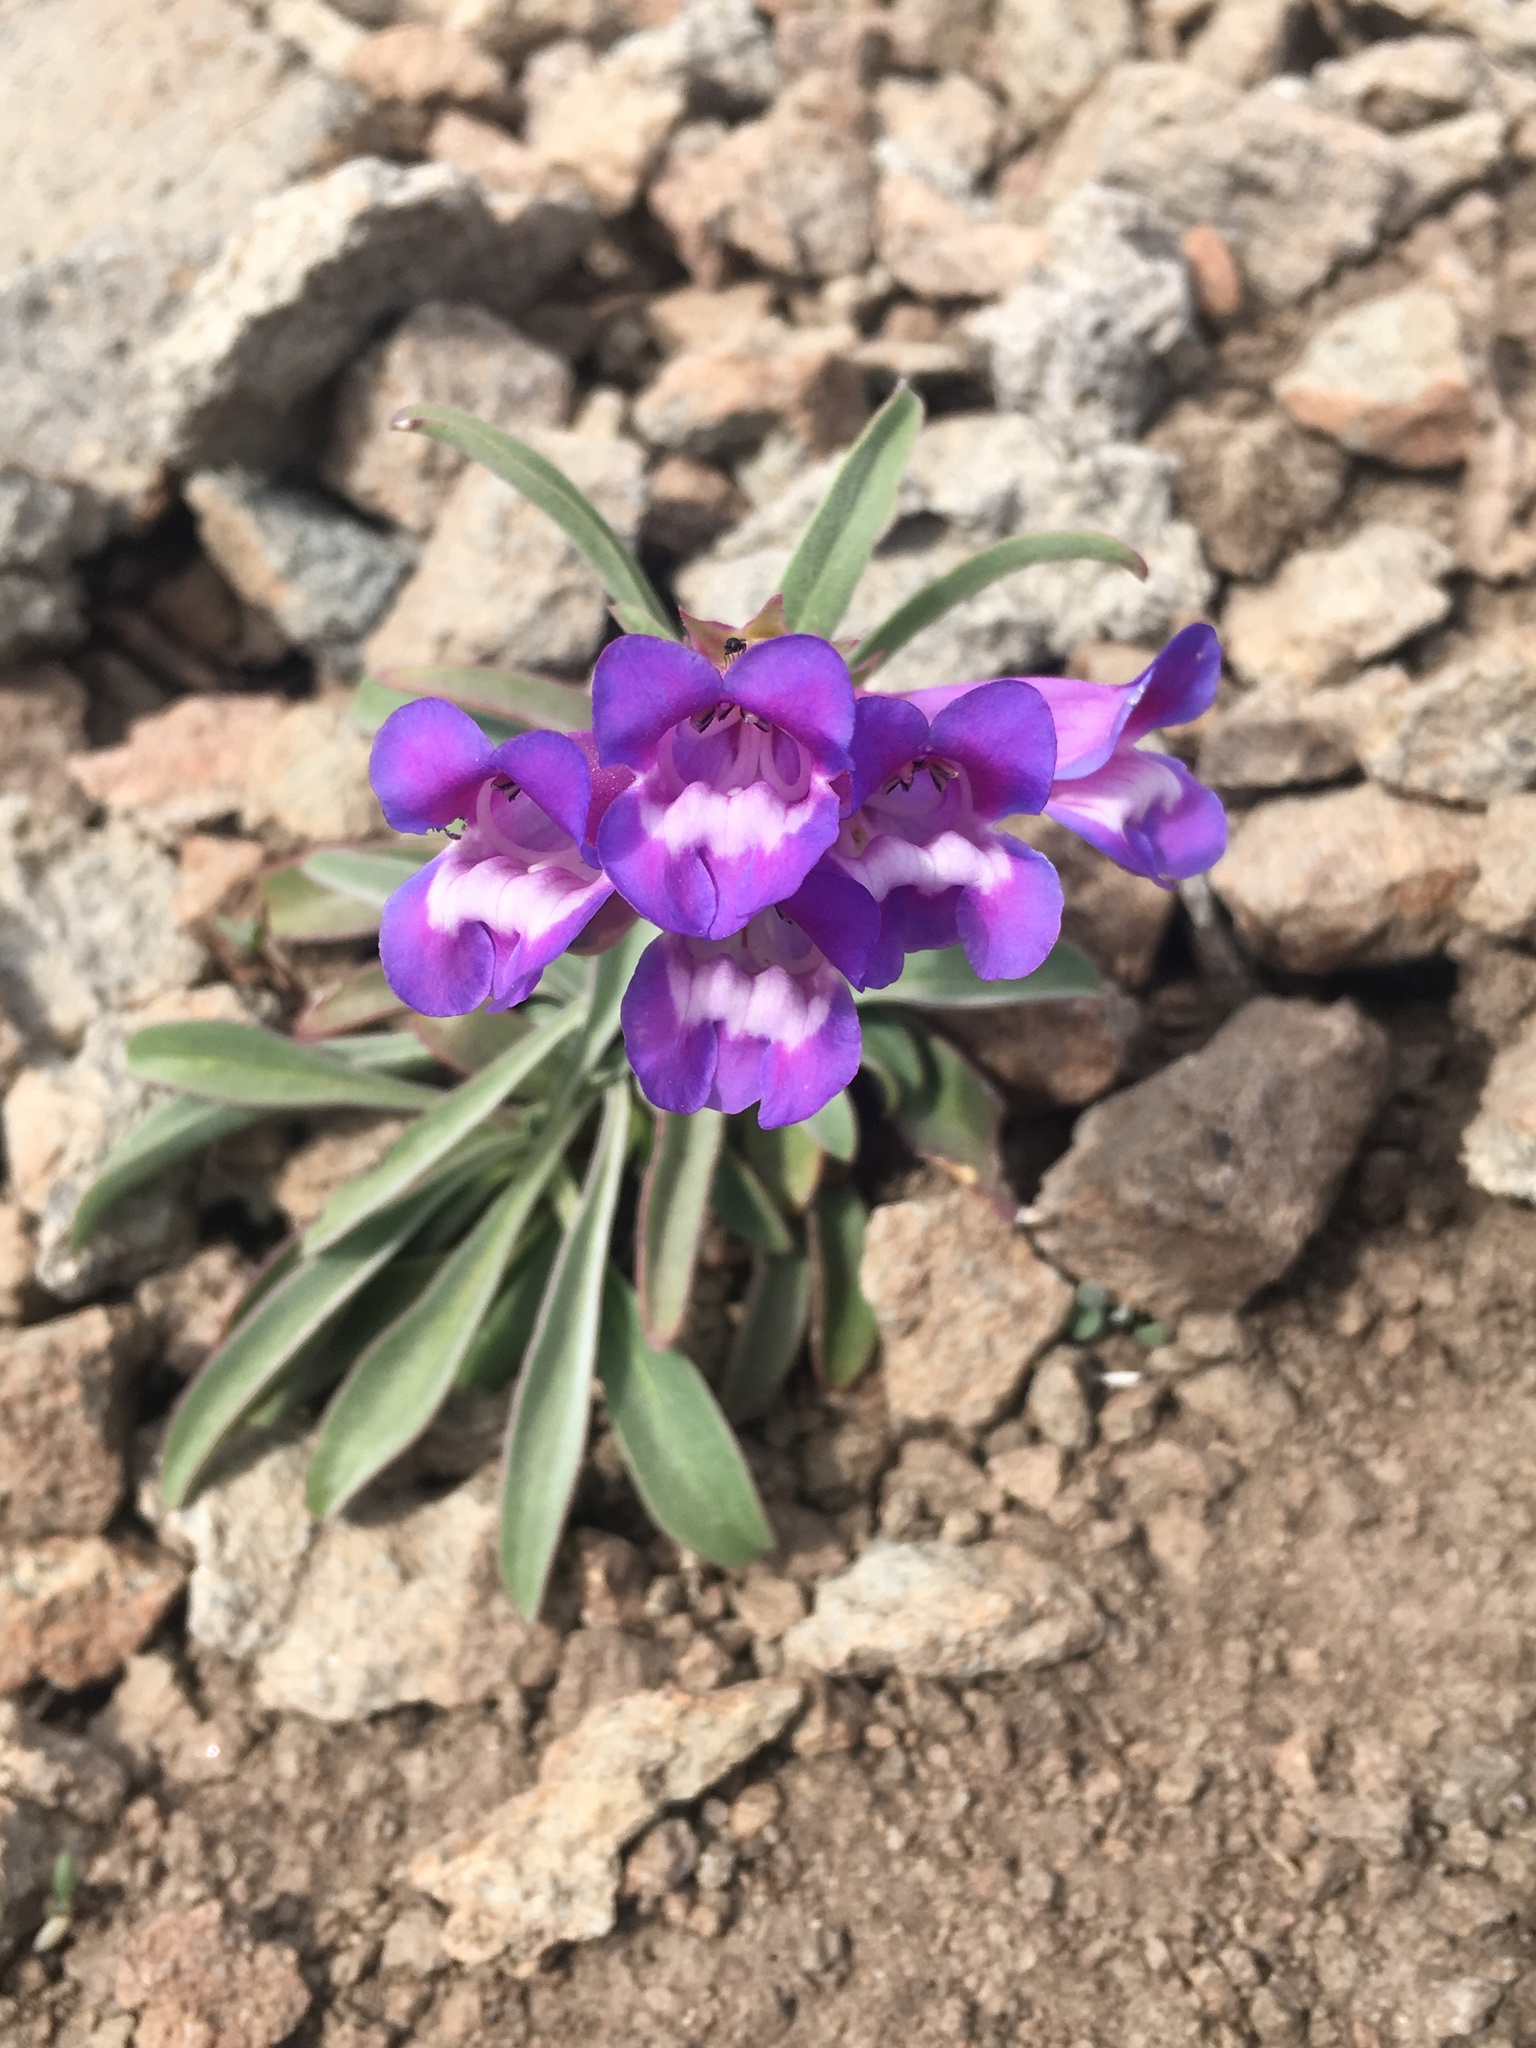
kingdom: Plantae
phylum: Tracheophyta
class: Magnoliopsida
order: Lamiales
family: Plantaginaceae
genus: Penstemon
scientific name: Penstemon speciosus
